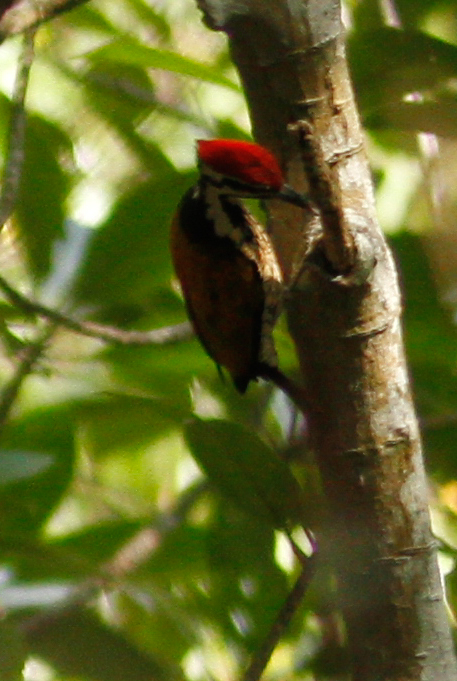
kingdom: Animalia
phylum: Chordata
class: Aves
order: Piciformes
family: Picidae
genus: Dinopium
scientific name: Dinopium javanense
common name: Common flameback
